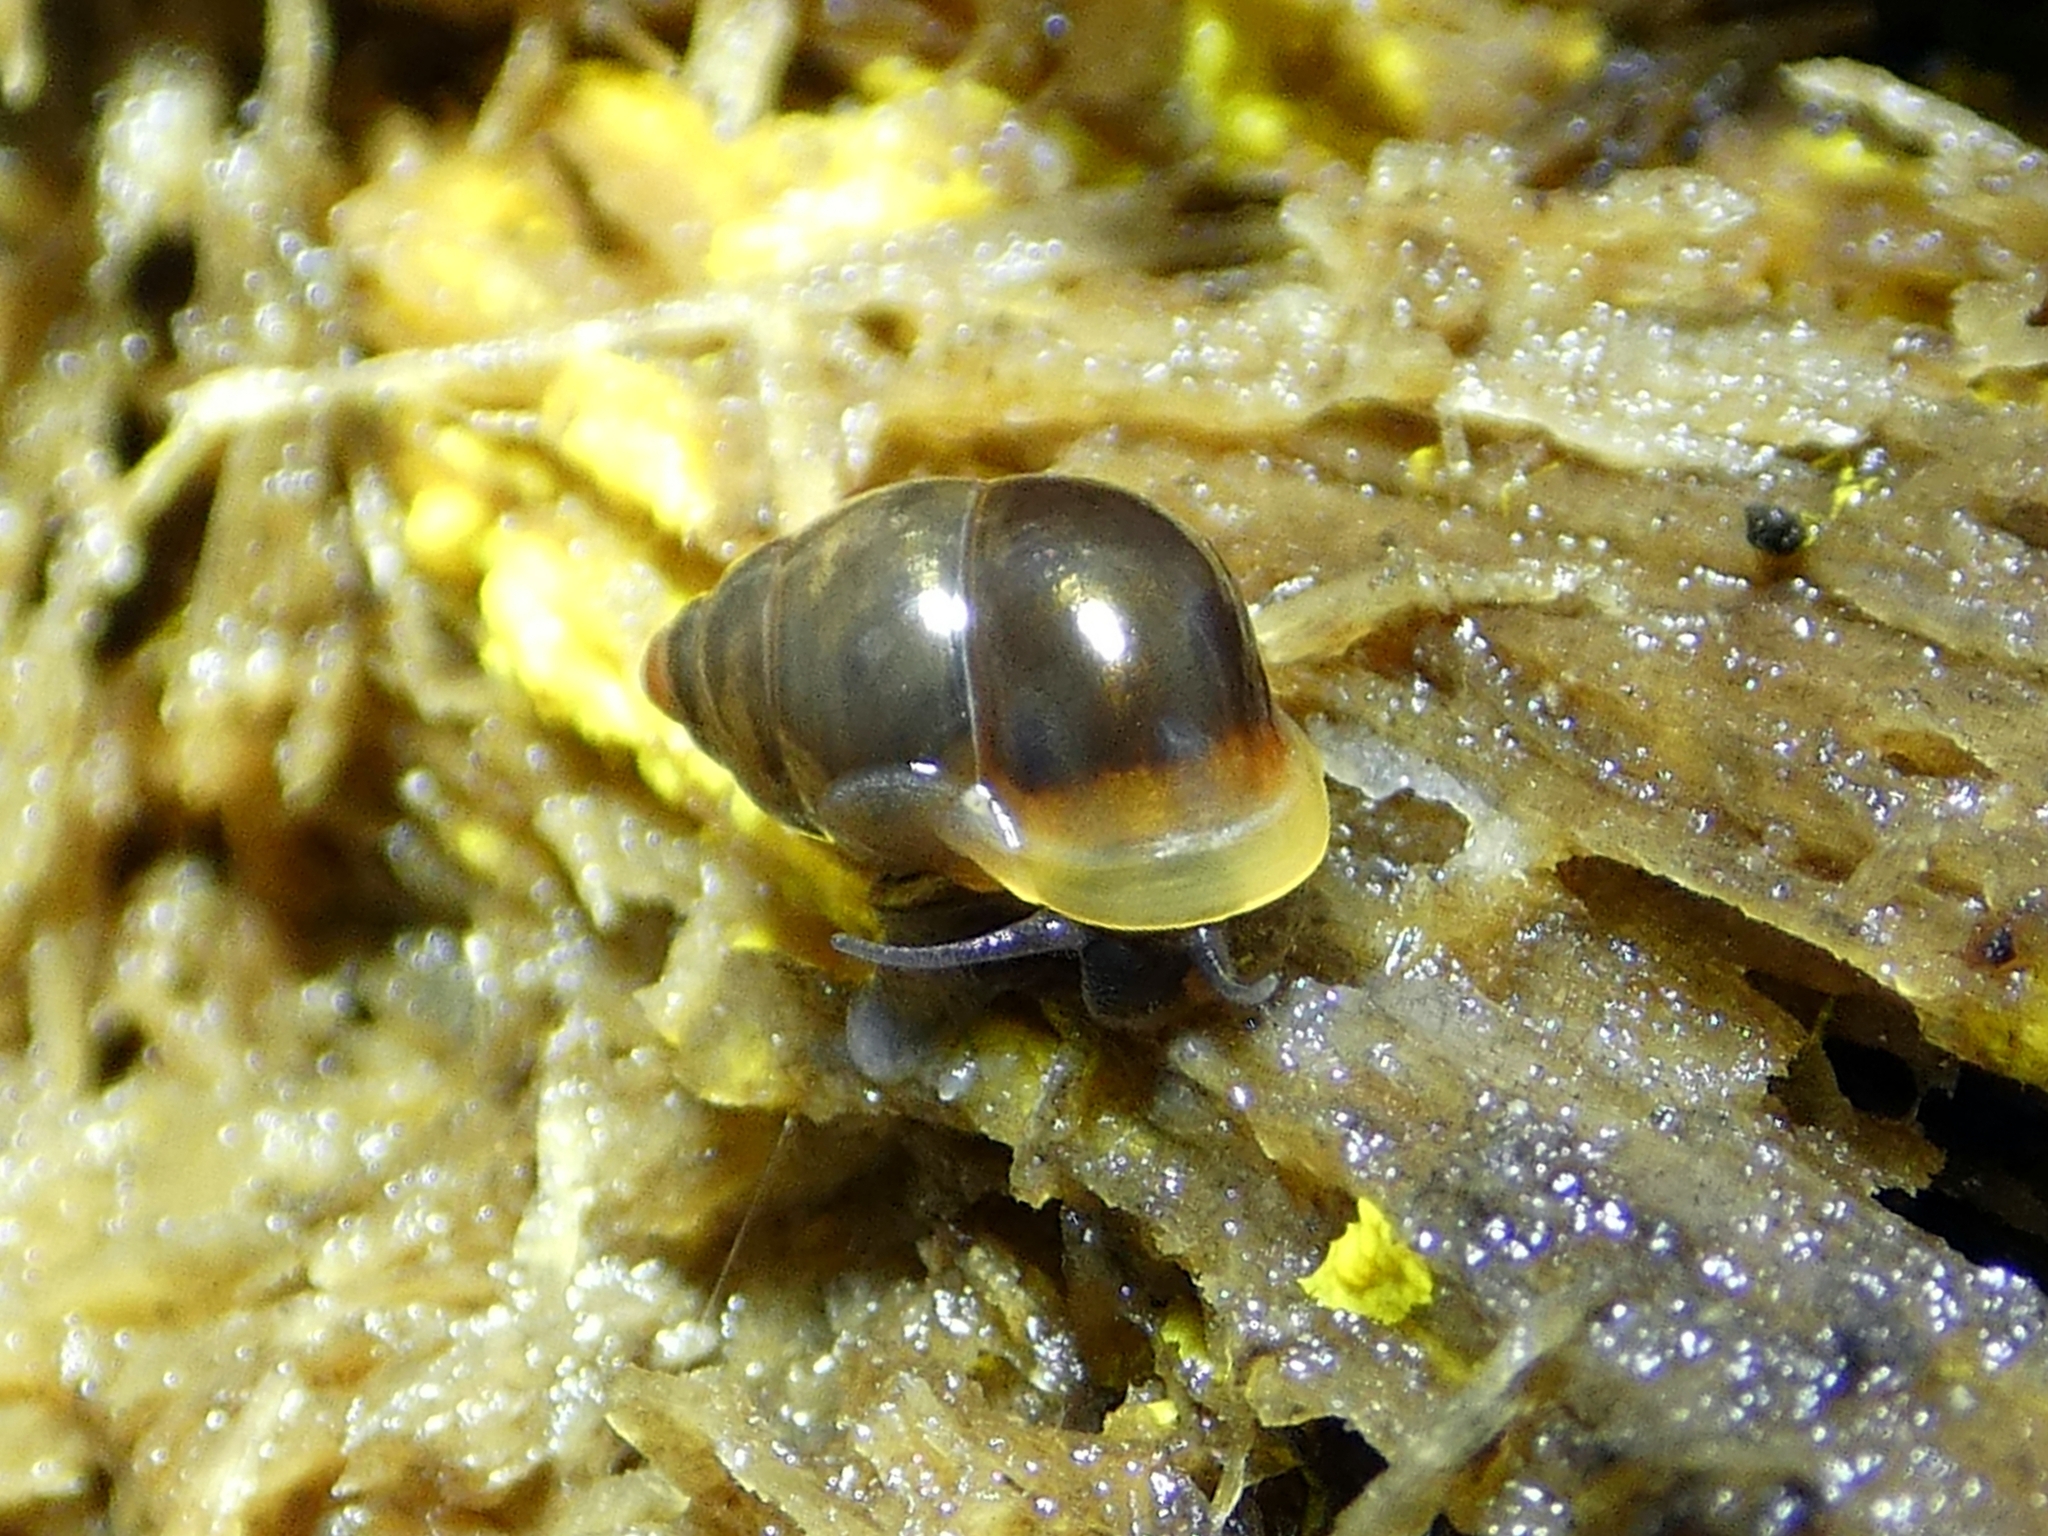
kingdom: Animalia
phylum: Mollusca
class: Gastropoda
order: Architaenioglossa
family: Pupinidae
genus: Signepupina
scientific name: Signepupina rubiflava
